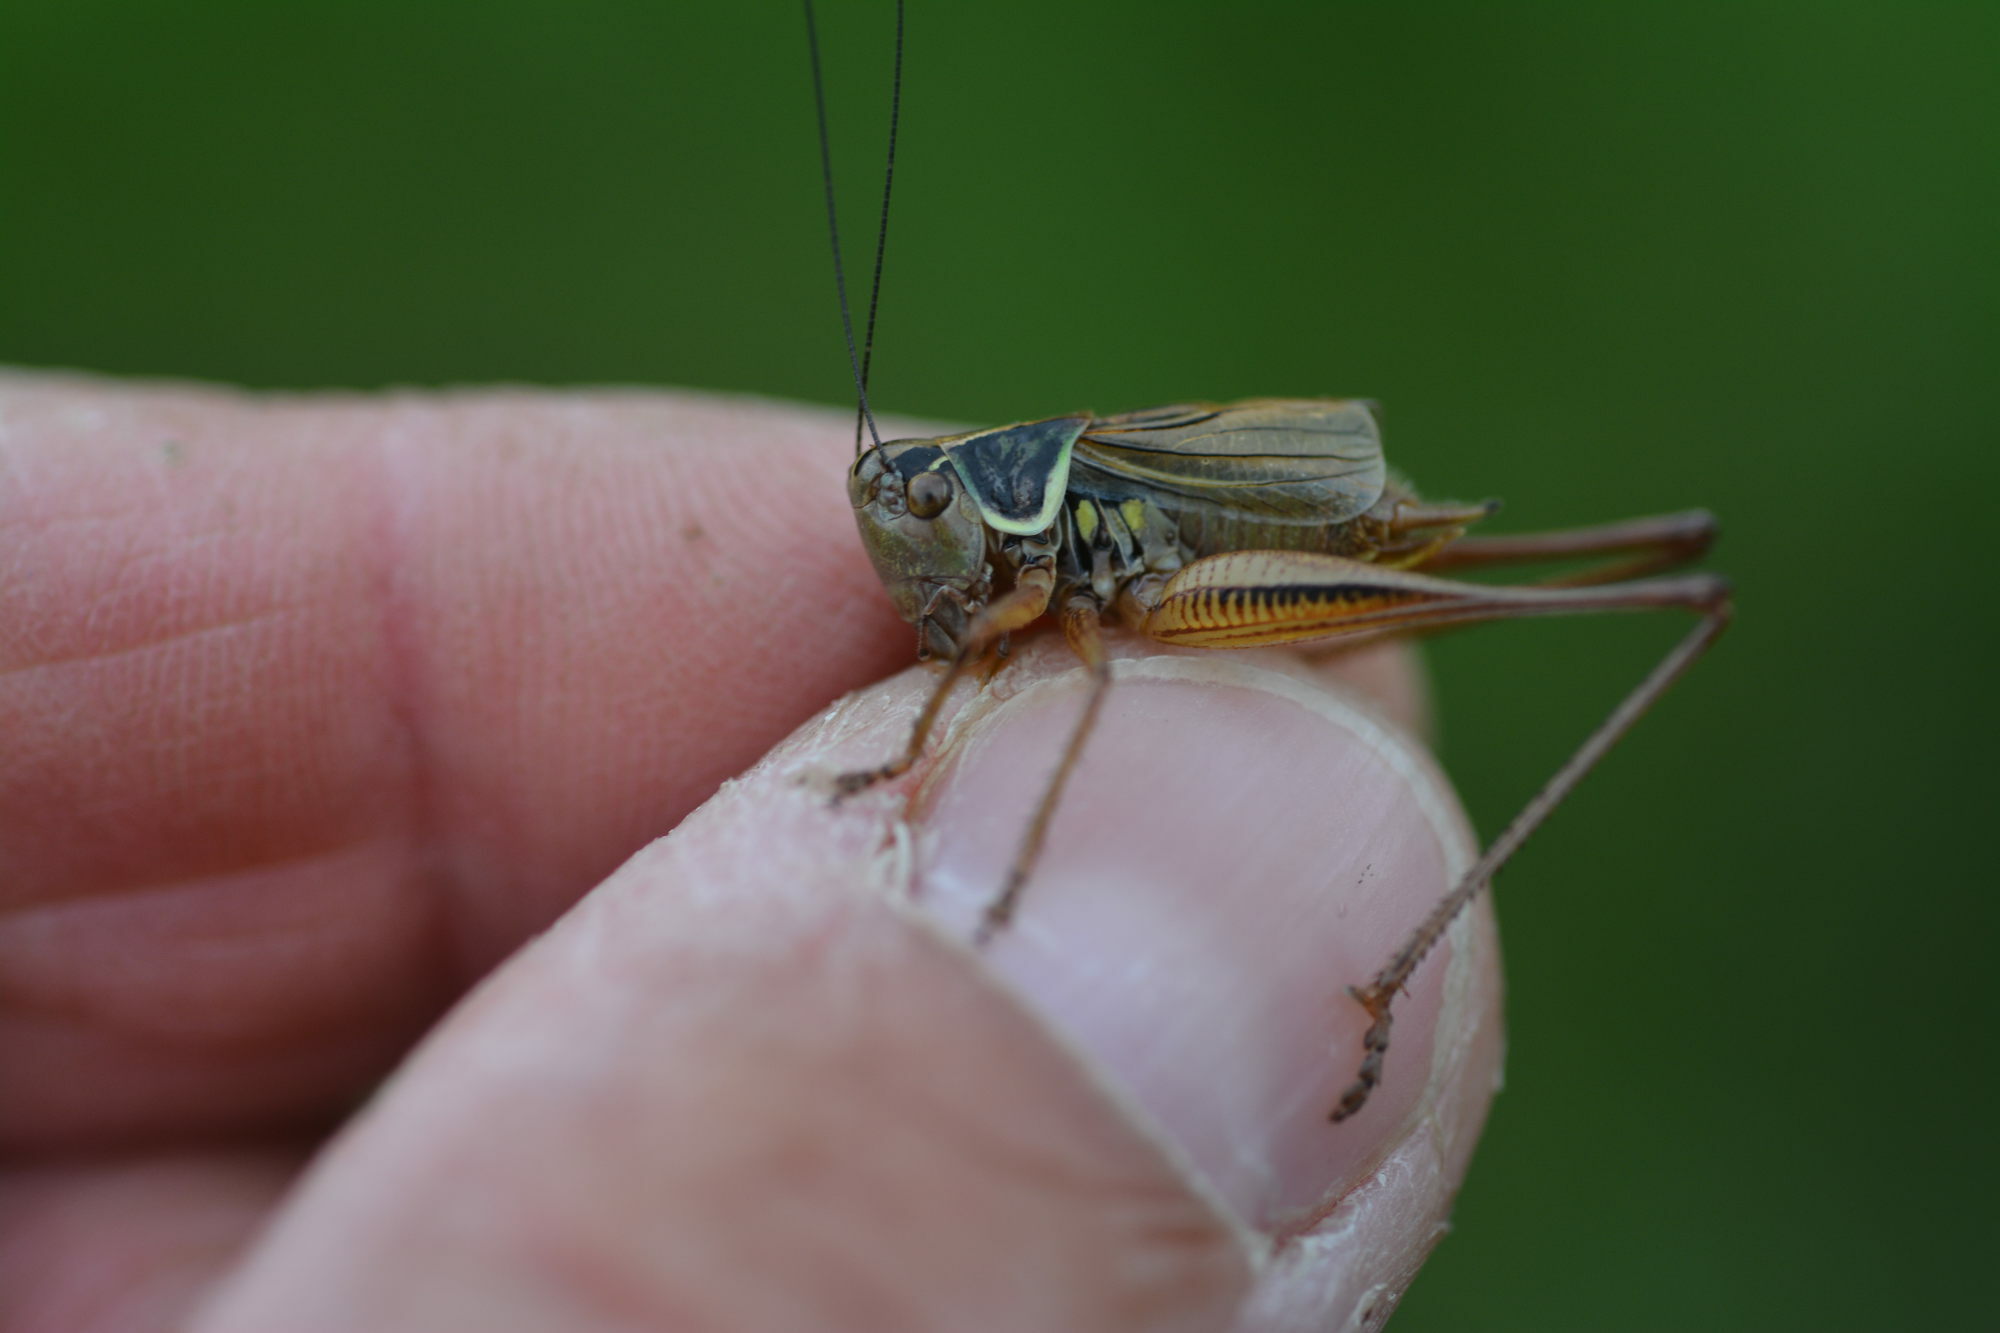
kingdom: Animalia
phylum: Arthropoda
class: Insecta
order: Orthoptera
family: Tettigoniidae
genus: Roeseliana
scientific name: Roeseliana roeselii
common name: Roesel's bush cricket
